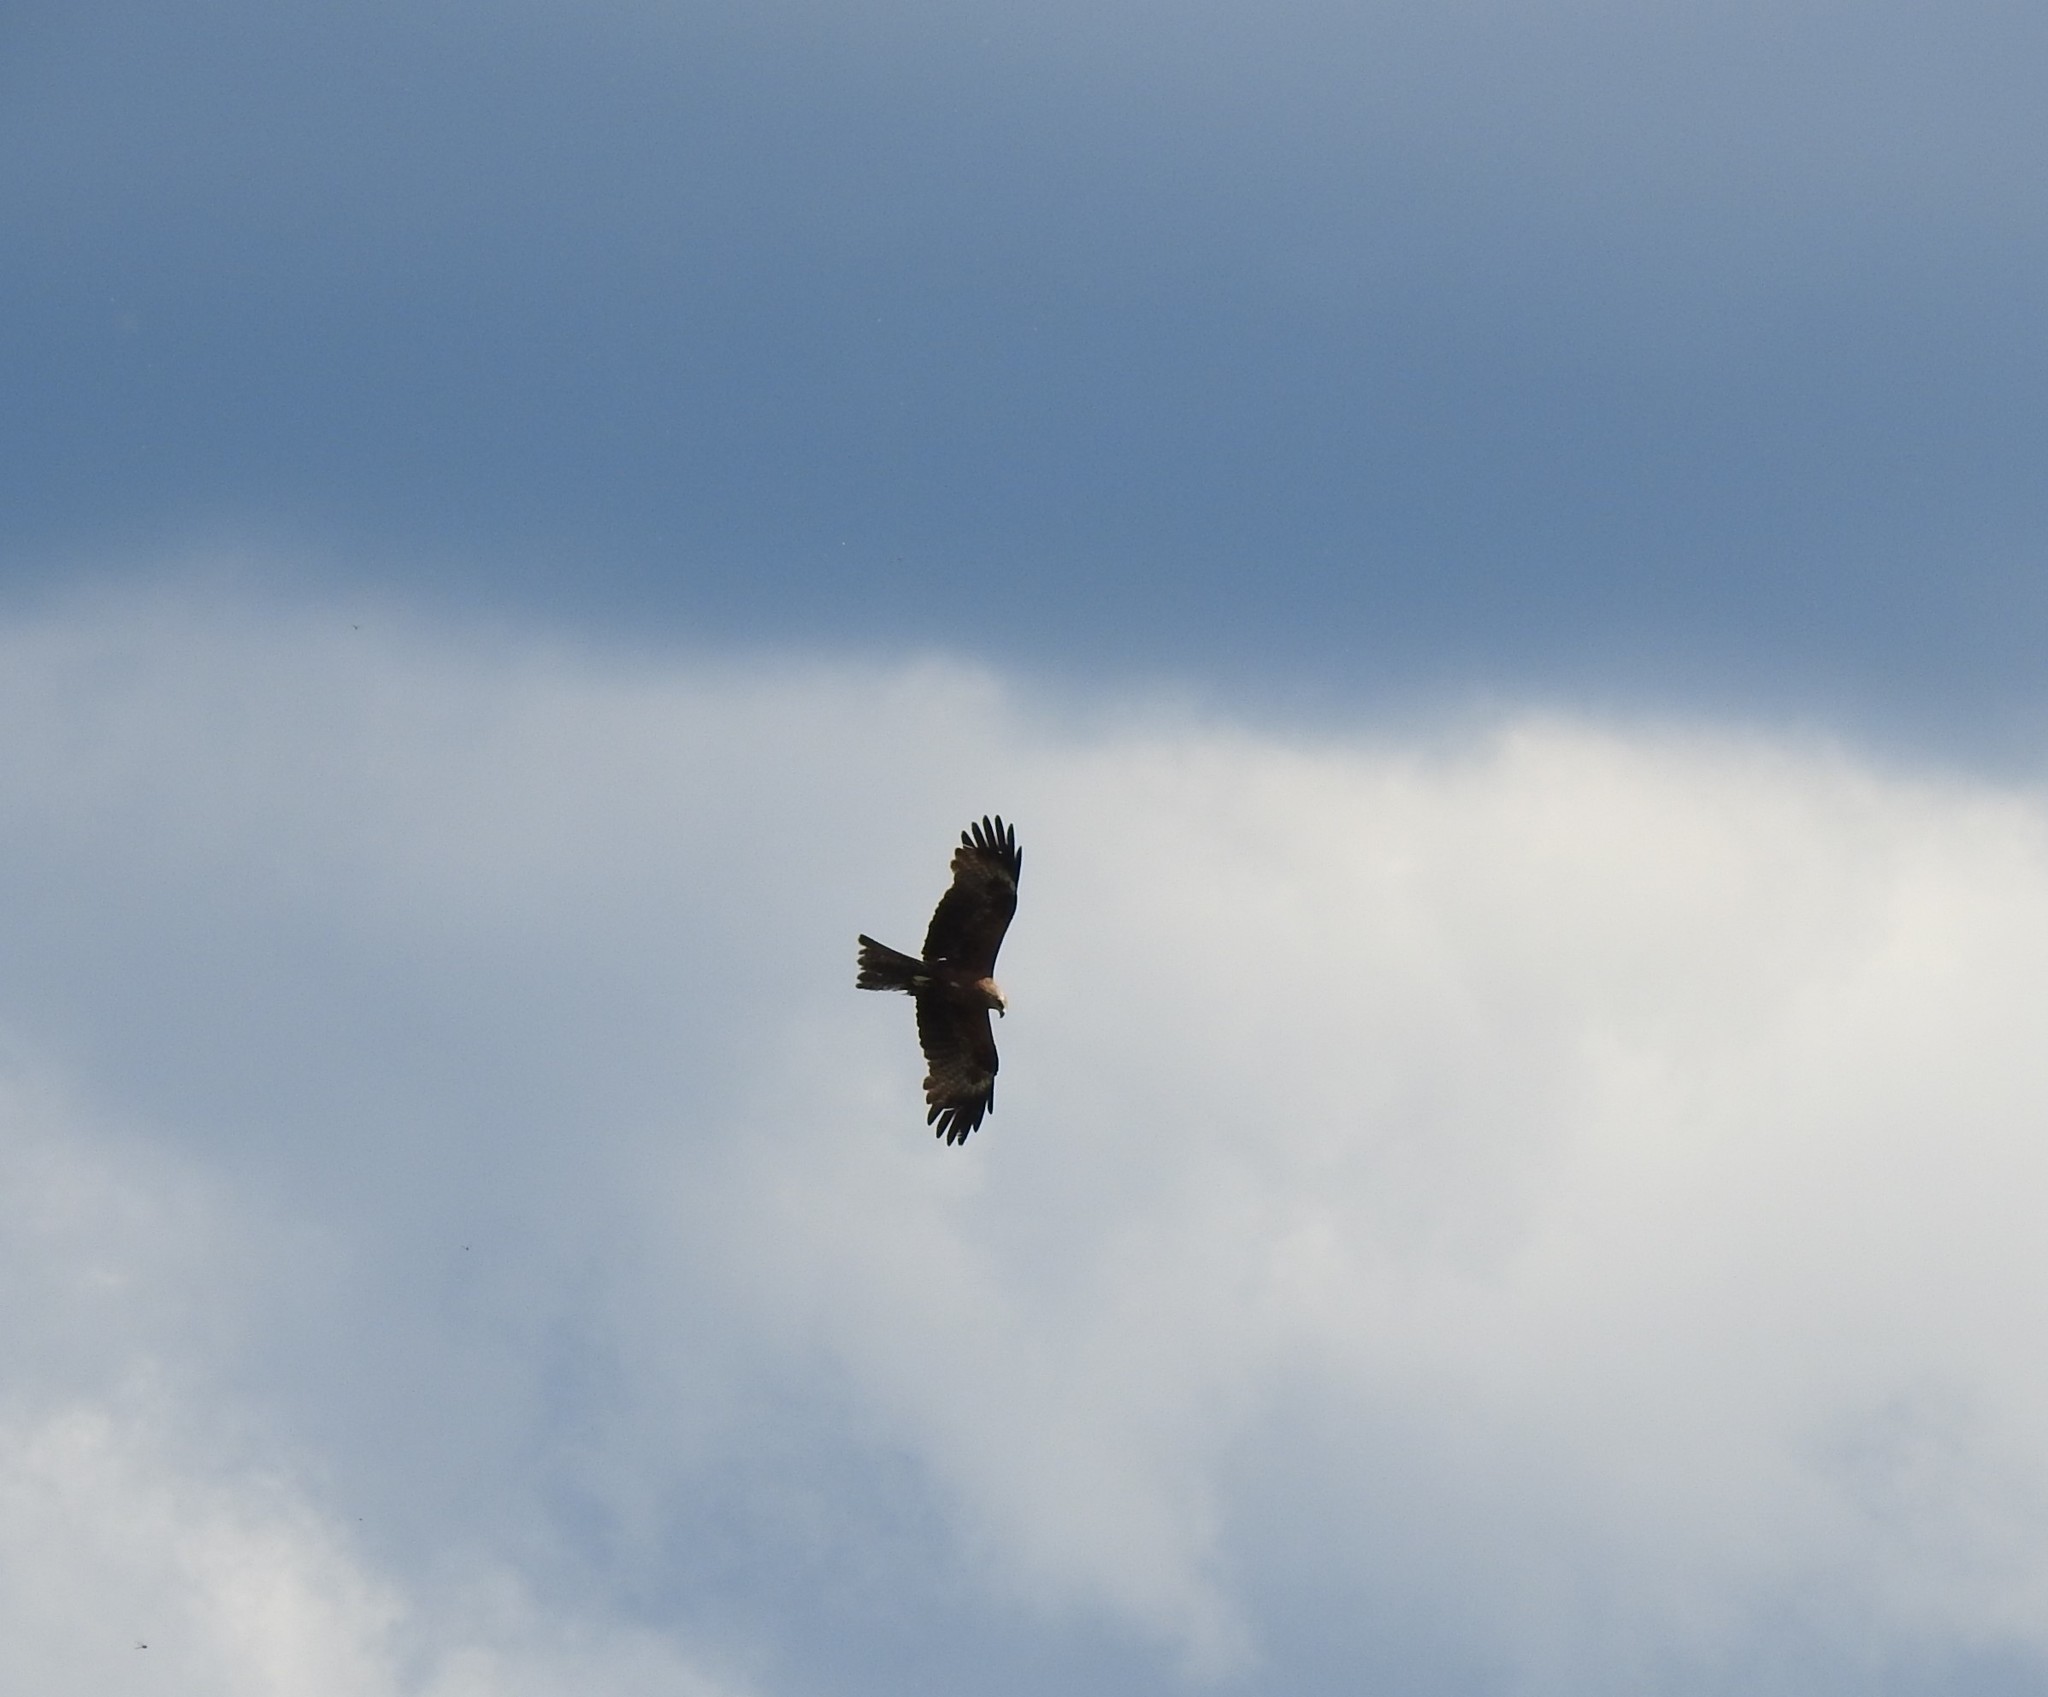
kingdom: Animalia
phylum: Chordata
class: Aves
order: Accipitriformes
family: Accipitridae
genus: Milvus
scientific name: Milvus migrans
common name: Black kite
